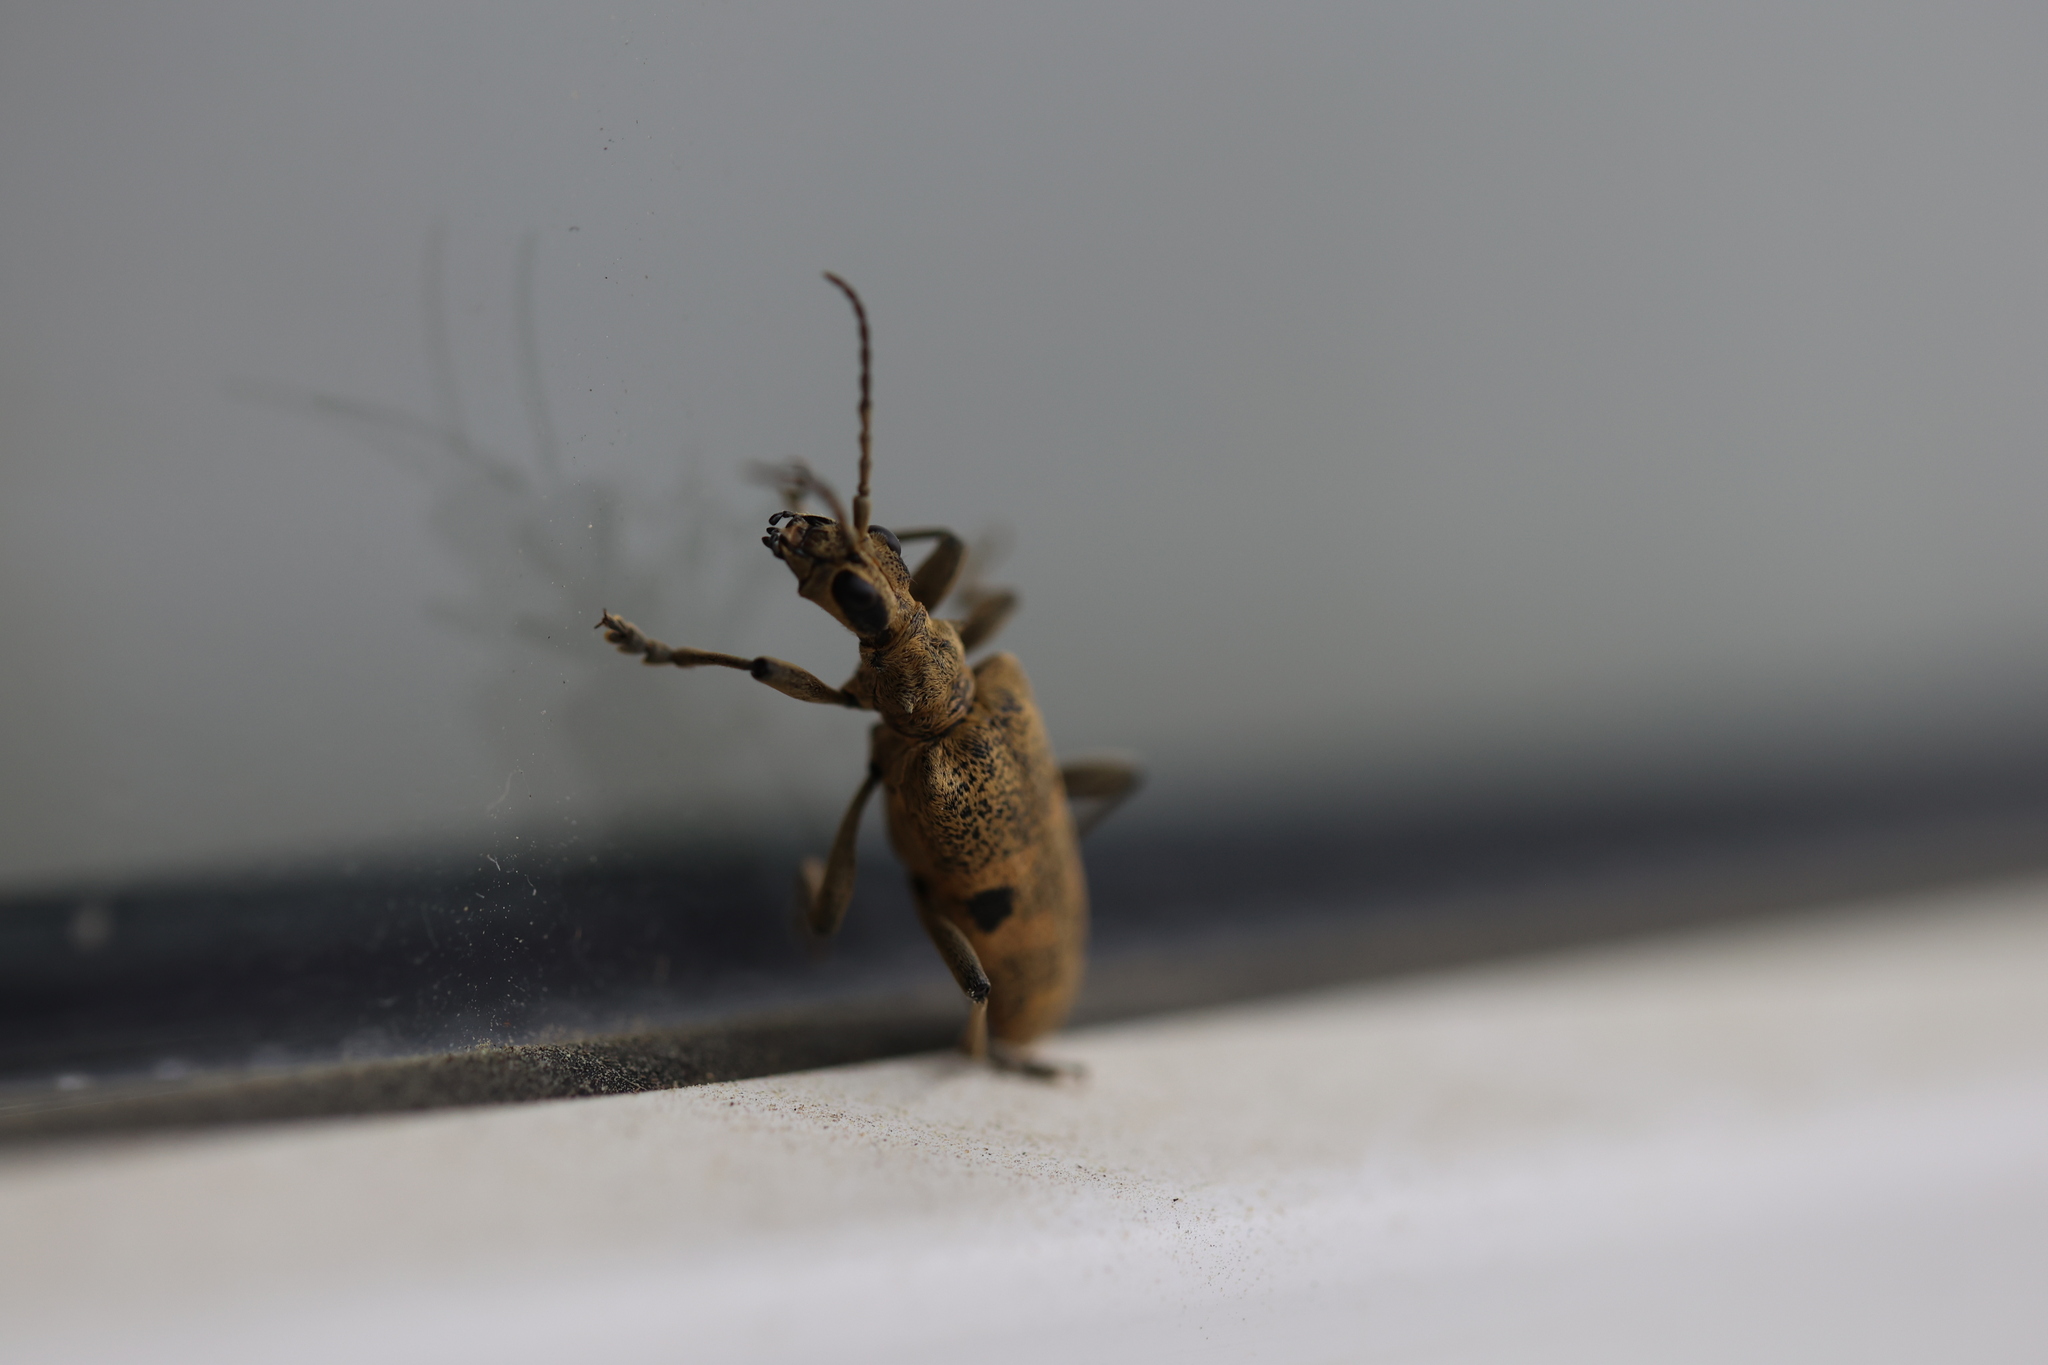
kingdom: Animalia
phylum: Arthropoda
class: Insecta
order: Coleoptera
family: Cerambycidae
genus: Rhagium
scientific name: Rhagium mordax
